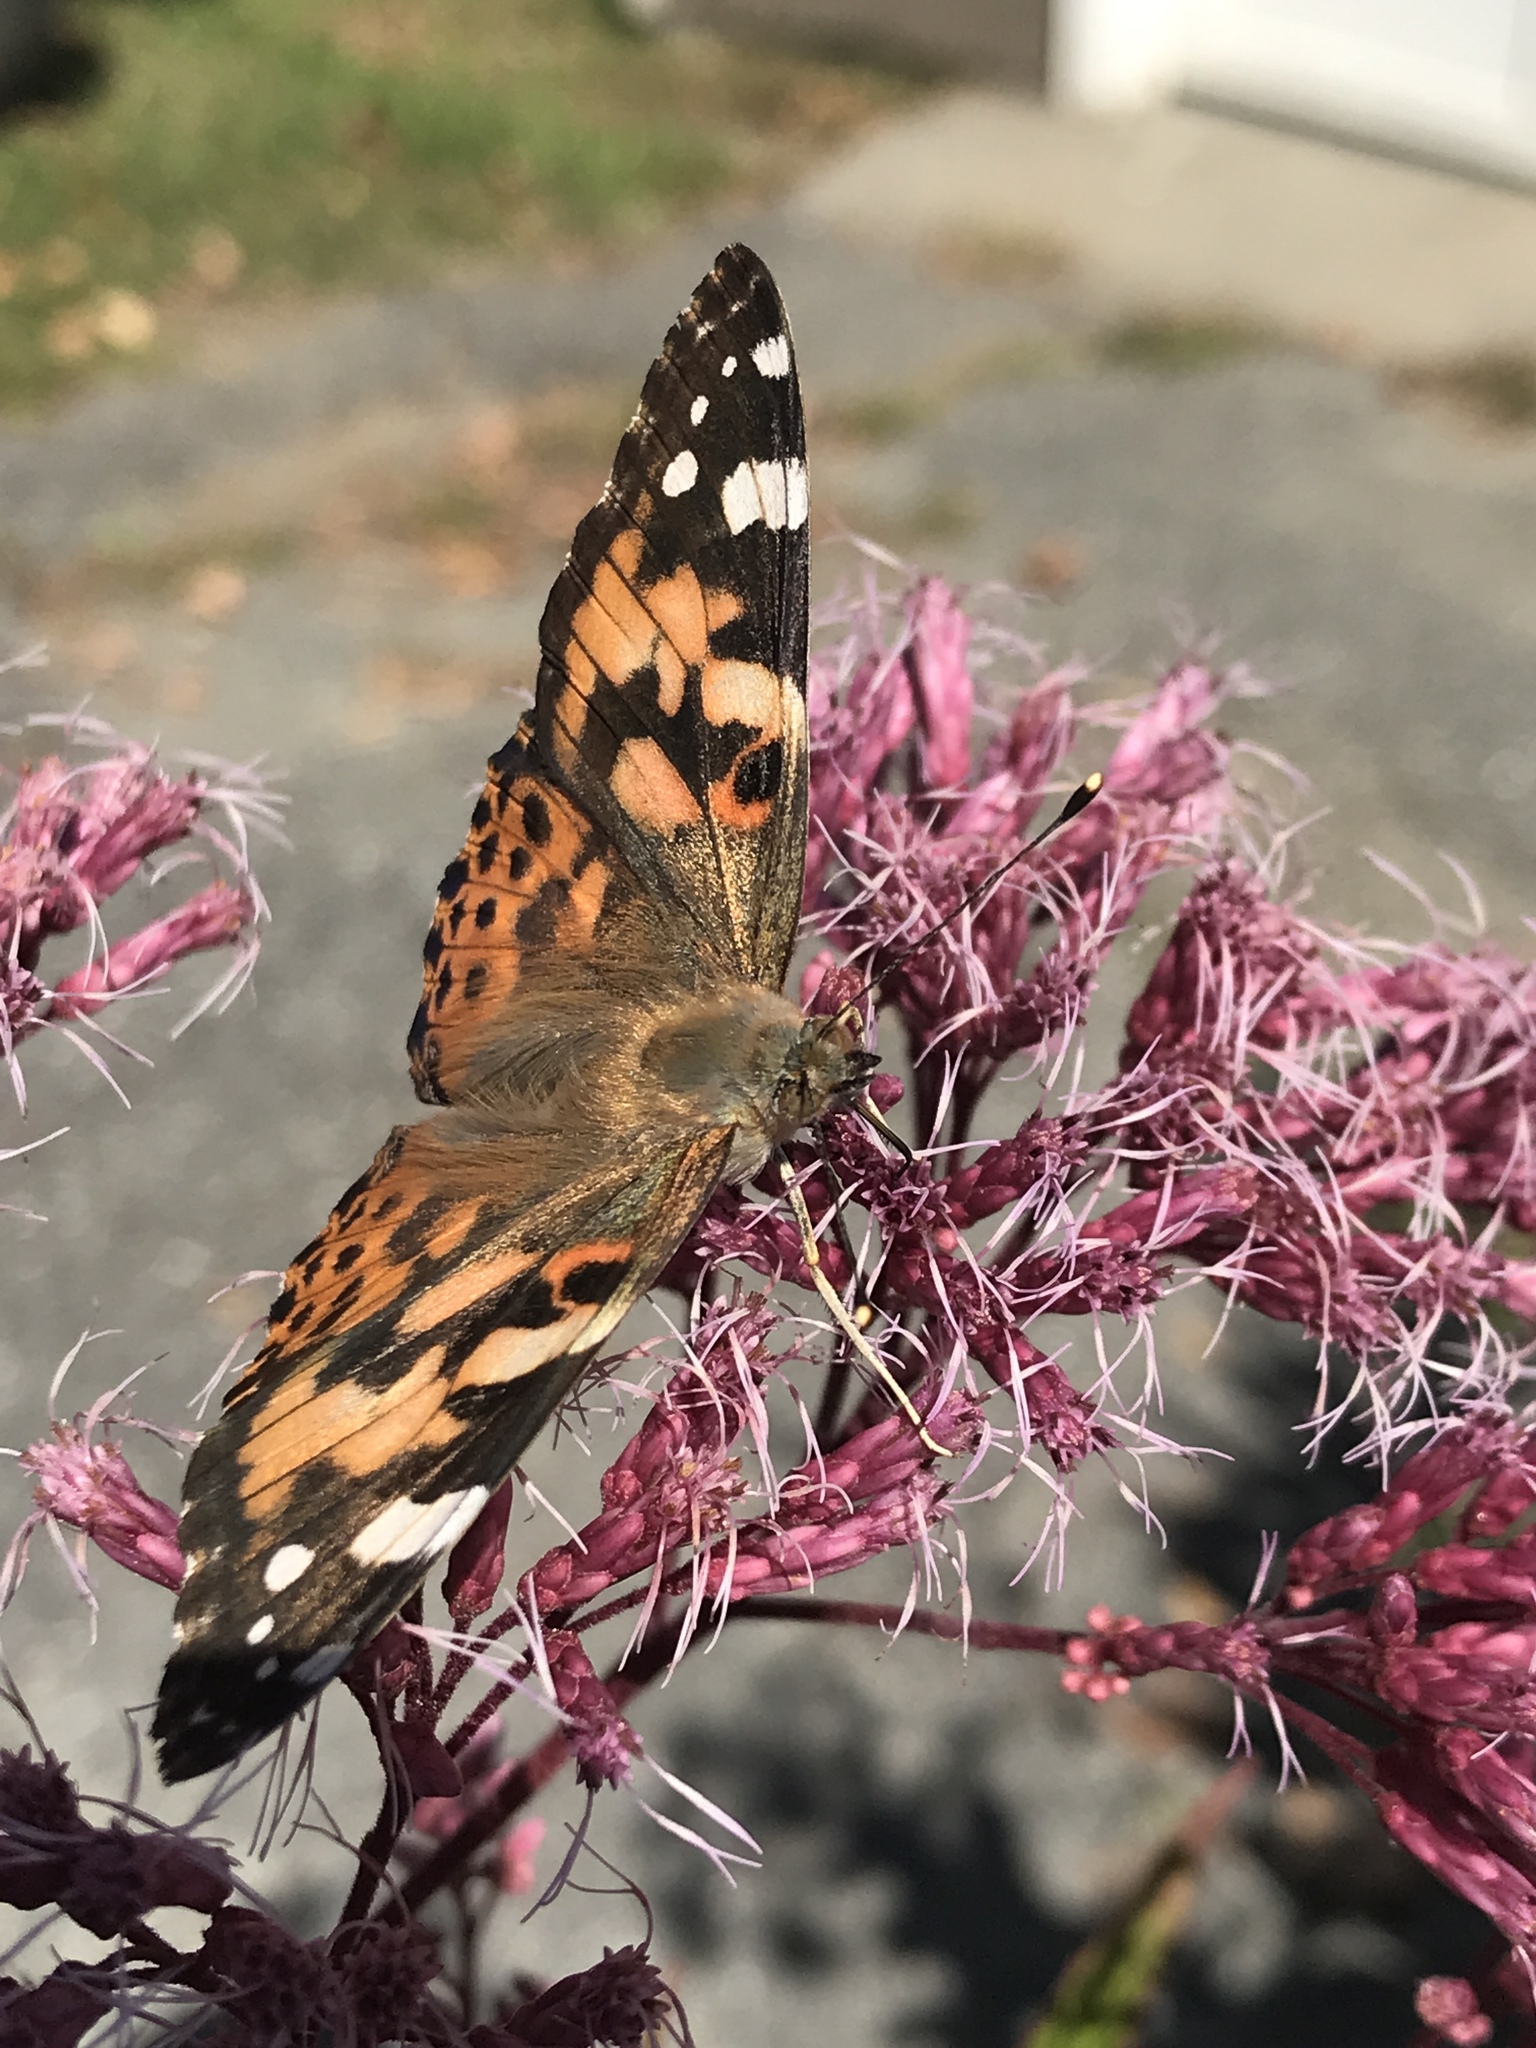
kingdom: Animalia
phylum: Arthropoda
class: Insecta
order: Lepidoptera
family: Nymphalidae
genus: Vanessa
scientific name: Vanessa cardui
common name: Painted lady
